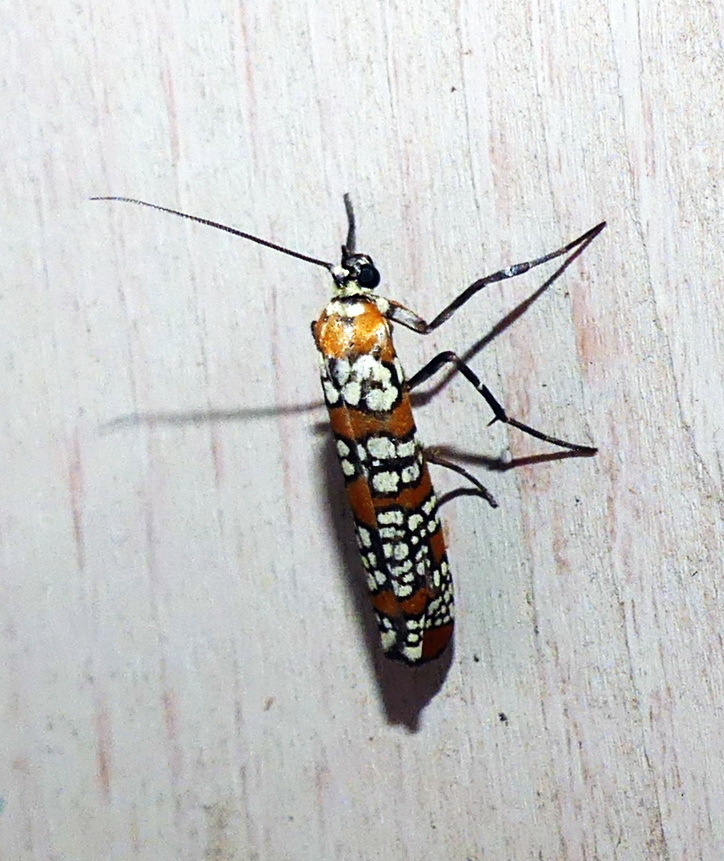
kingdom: Animalia
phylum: Arthropoda
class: Insecta
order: Lepidoptera
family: Attevidae
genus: Atteva
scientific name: Atteva punctella
